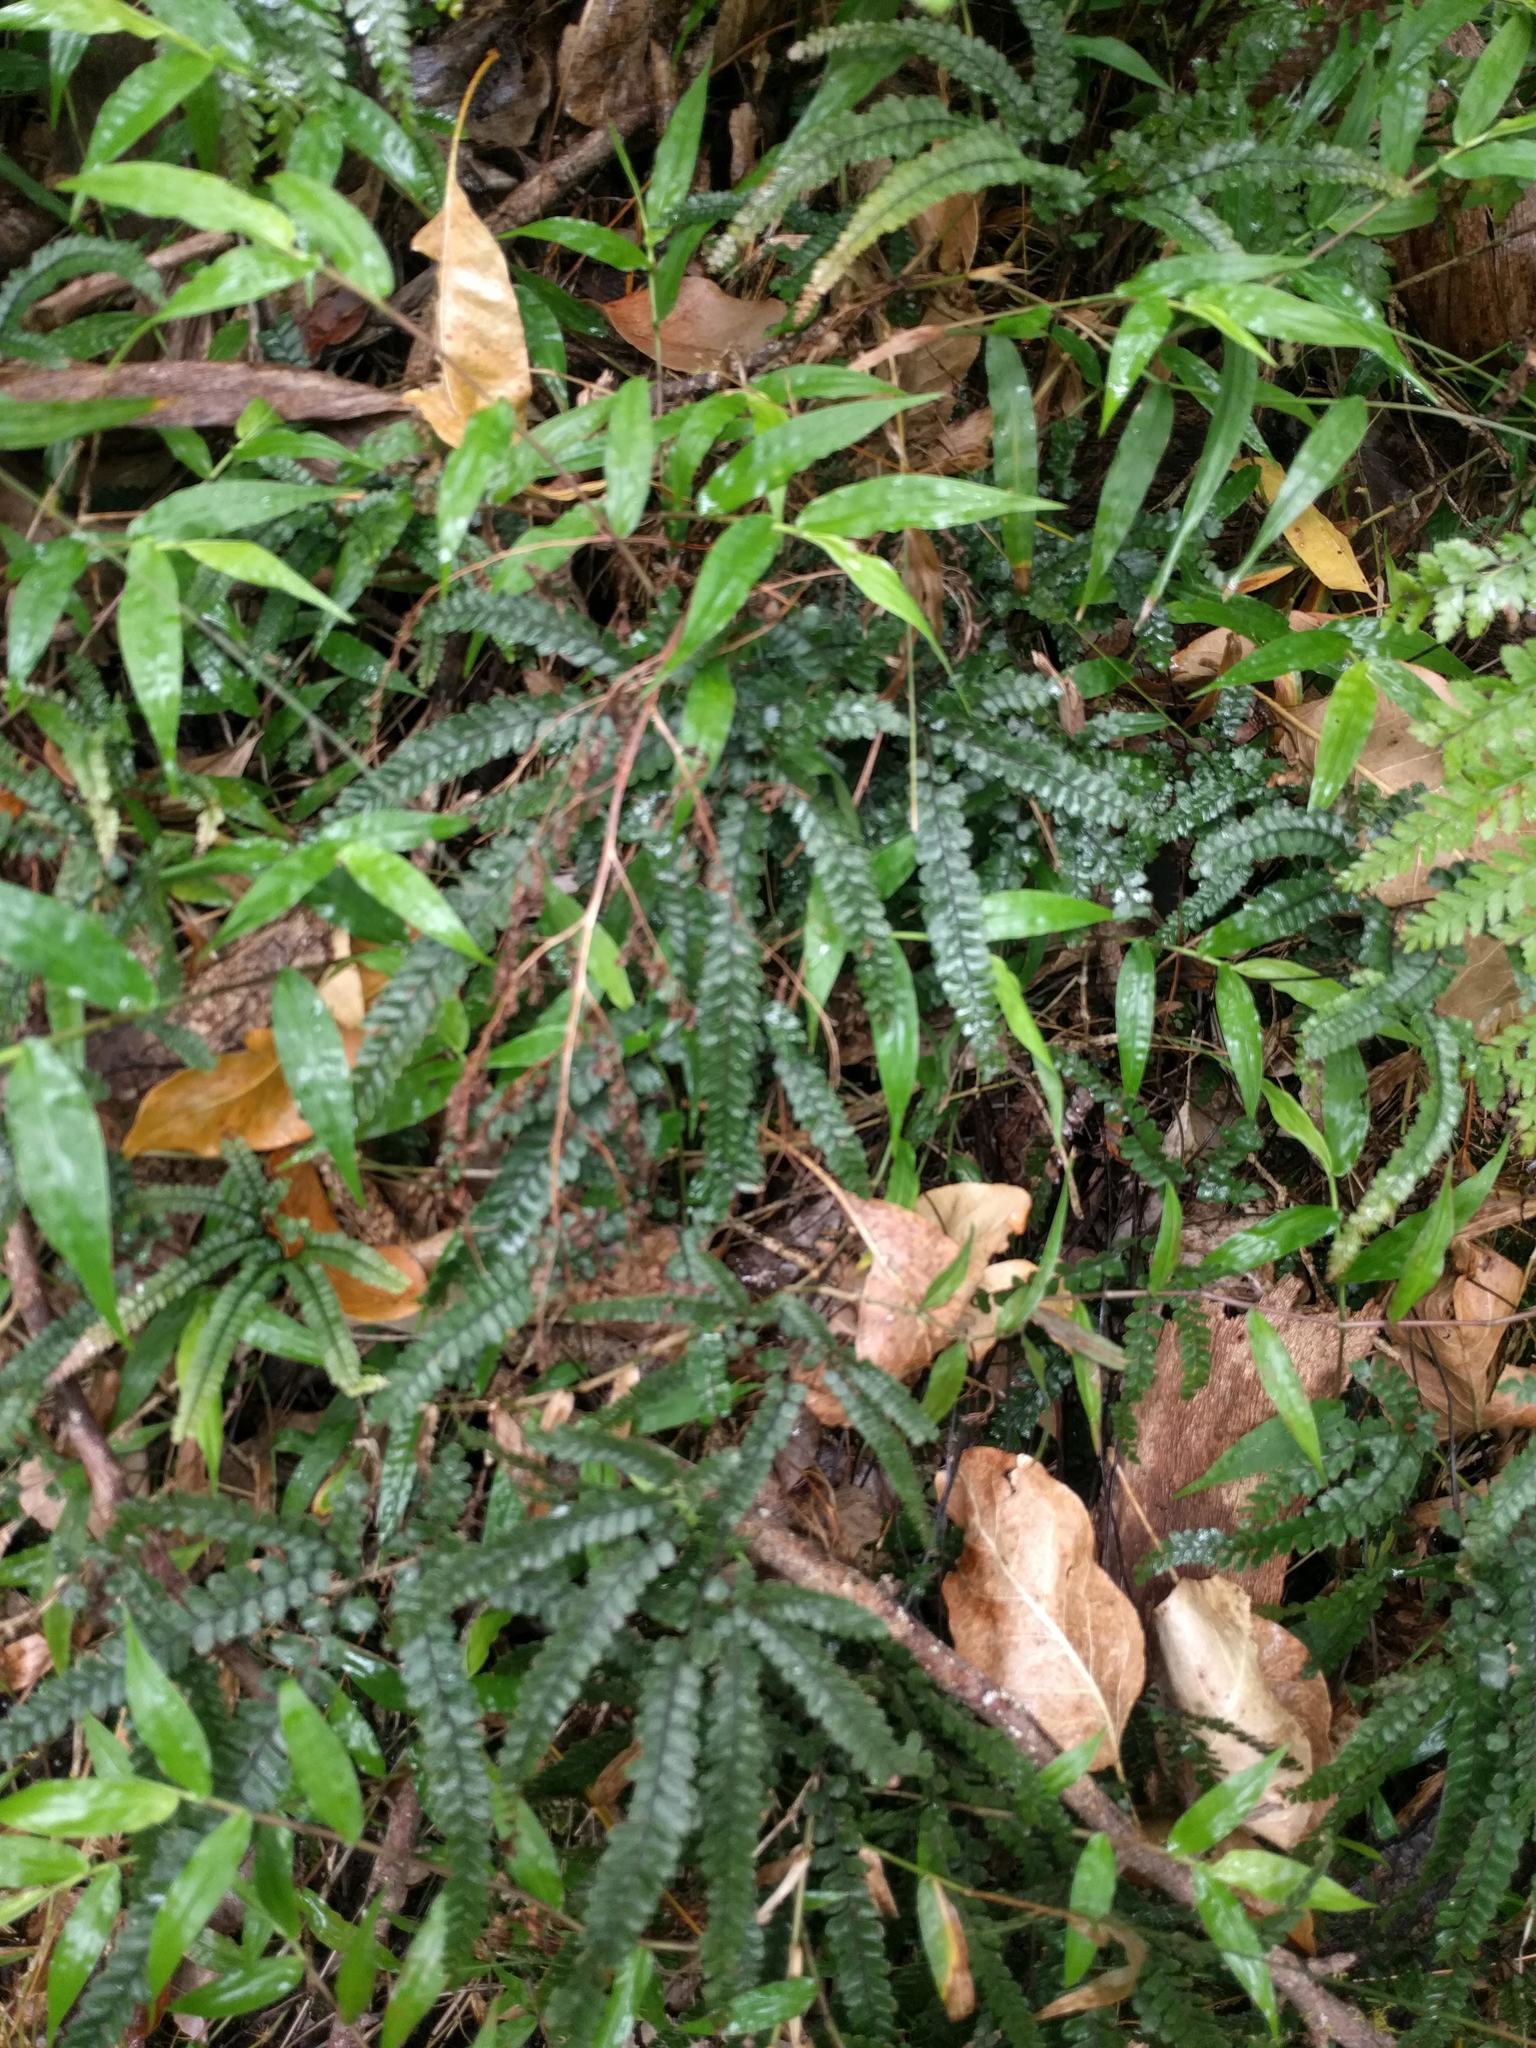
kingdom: Plantae
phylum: Tracheophyta
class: Polypodiopsida
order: Polypodiales
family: Pteridaceae
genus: Adiantum
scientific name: Adiantum hispidulum
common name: Rough maidenhair
